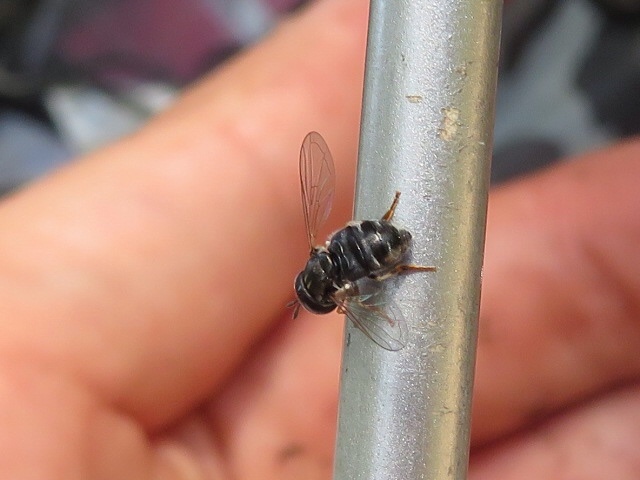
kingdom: Animalia
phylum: Arthropoda
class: Insecta
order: Diptera
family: Syrphidae
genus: Paragus
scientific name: Paragus
